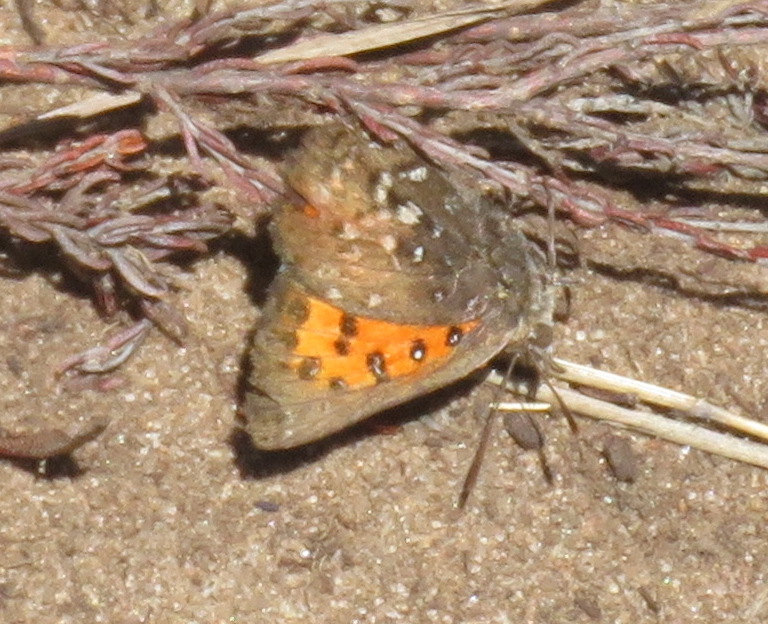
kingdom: Animalia
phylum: Arthropoda
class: Insecta
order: Lepidoptera
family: Lycaenidae
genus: Aloeides
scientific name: Aloeides aranda
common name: Aranda copper
